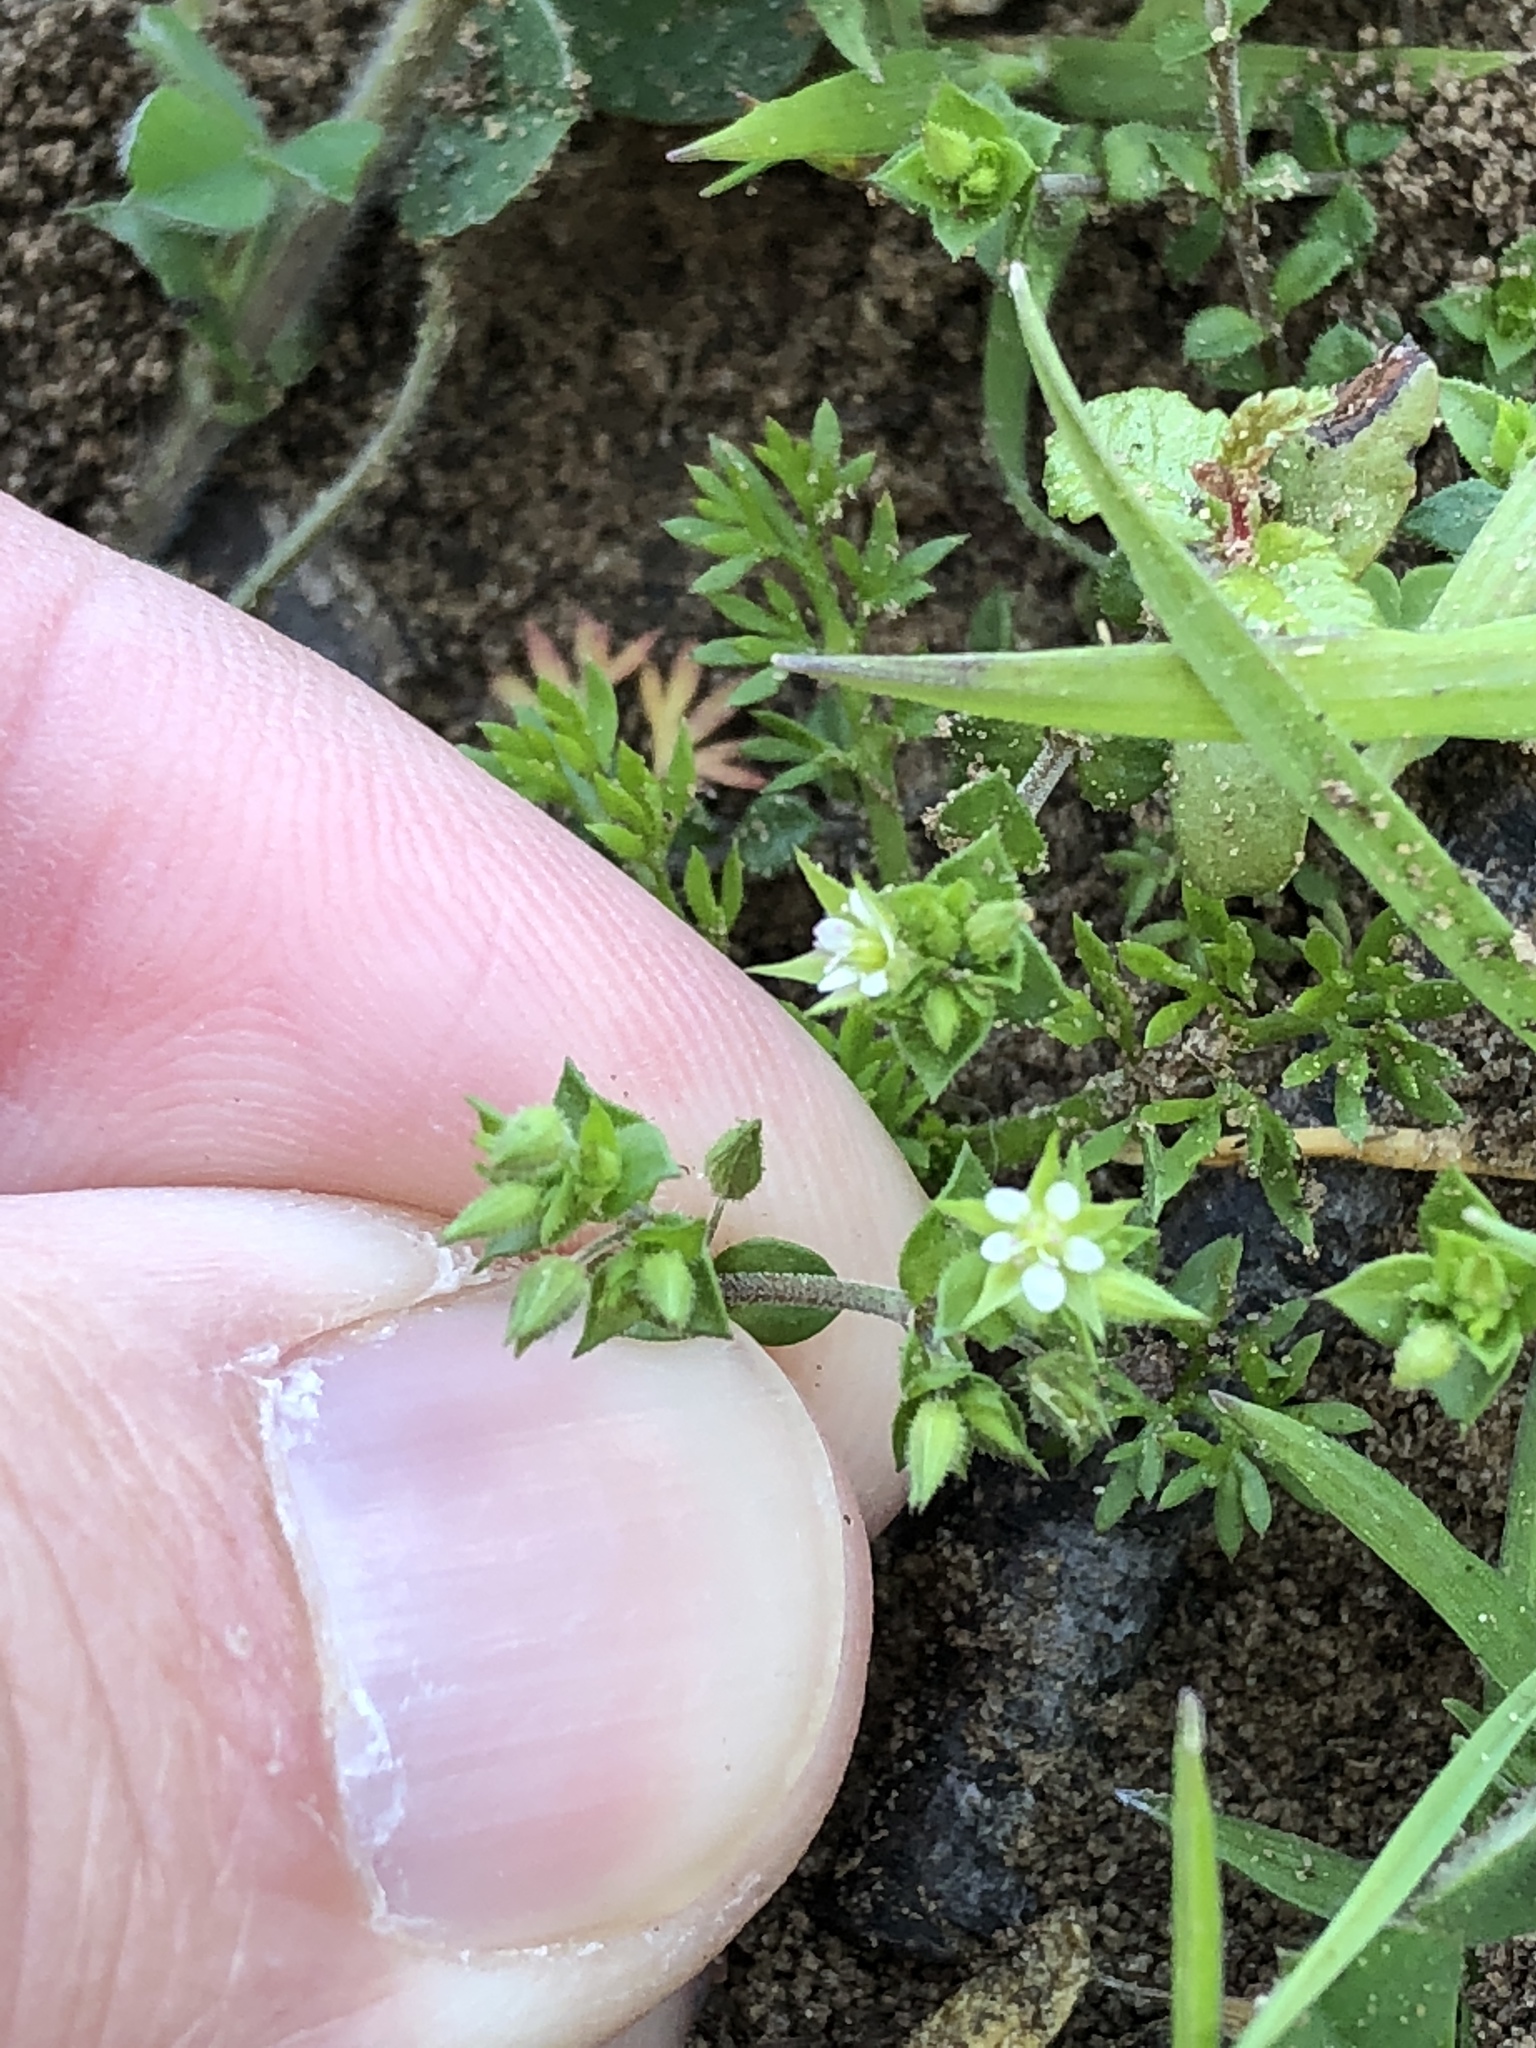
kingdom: Plantae
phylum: Tracheophyta
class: Magnoliopsida
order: Caryophyllales
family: Caryophyllaceae
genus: Arenaria
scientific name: Arenaria serpyllifolia
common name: Thyme-leaved sandwort
